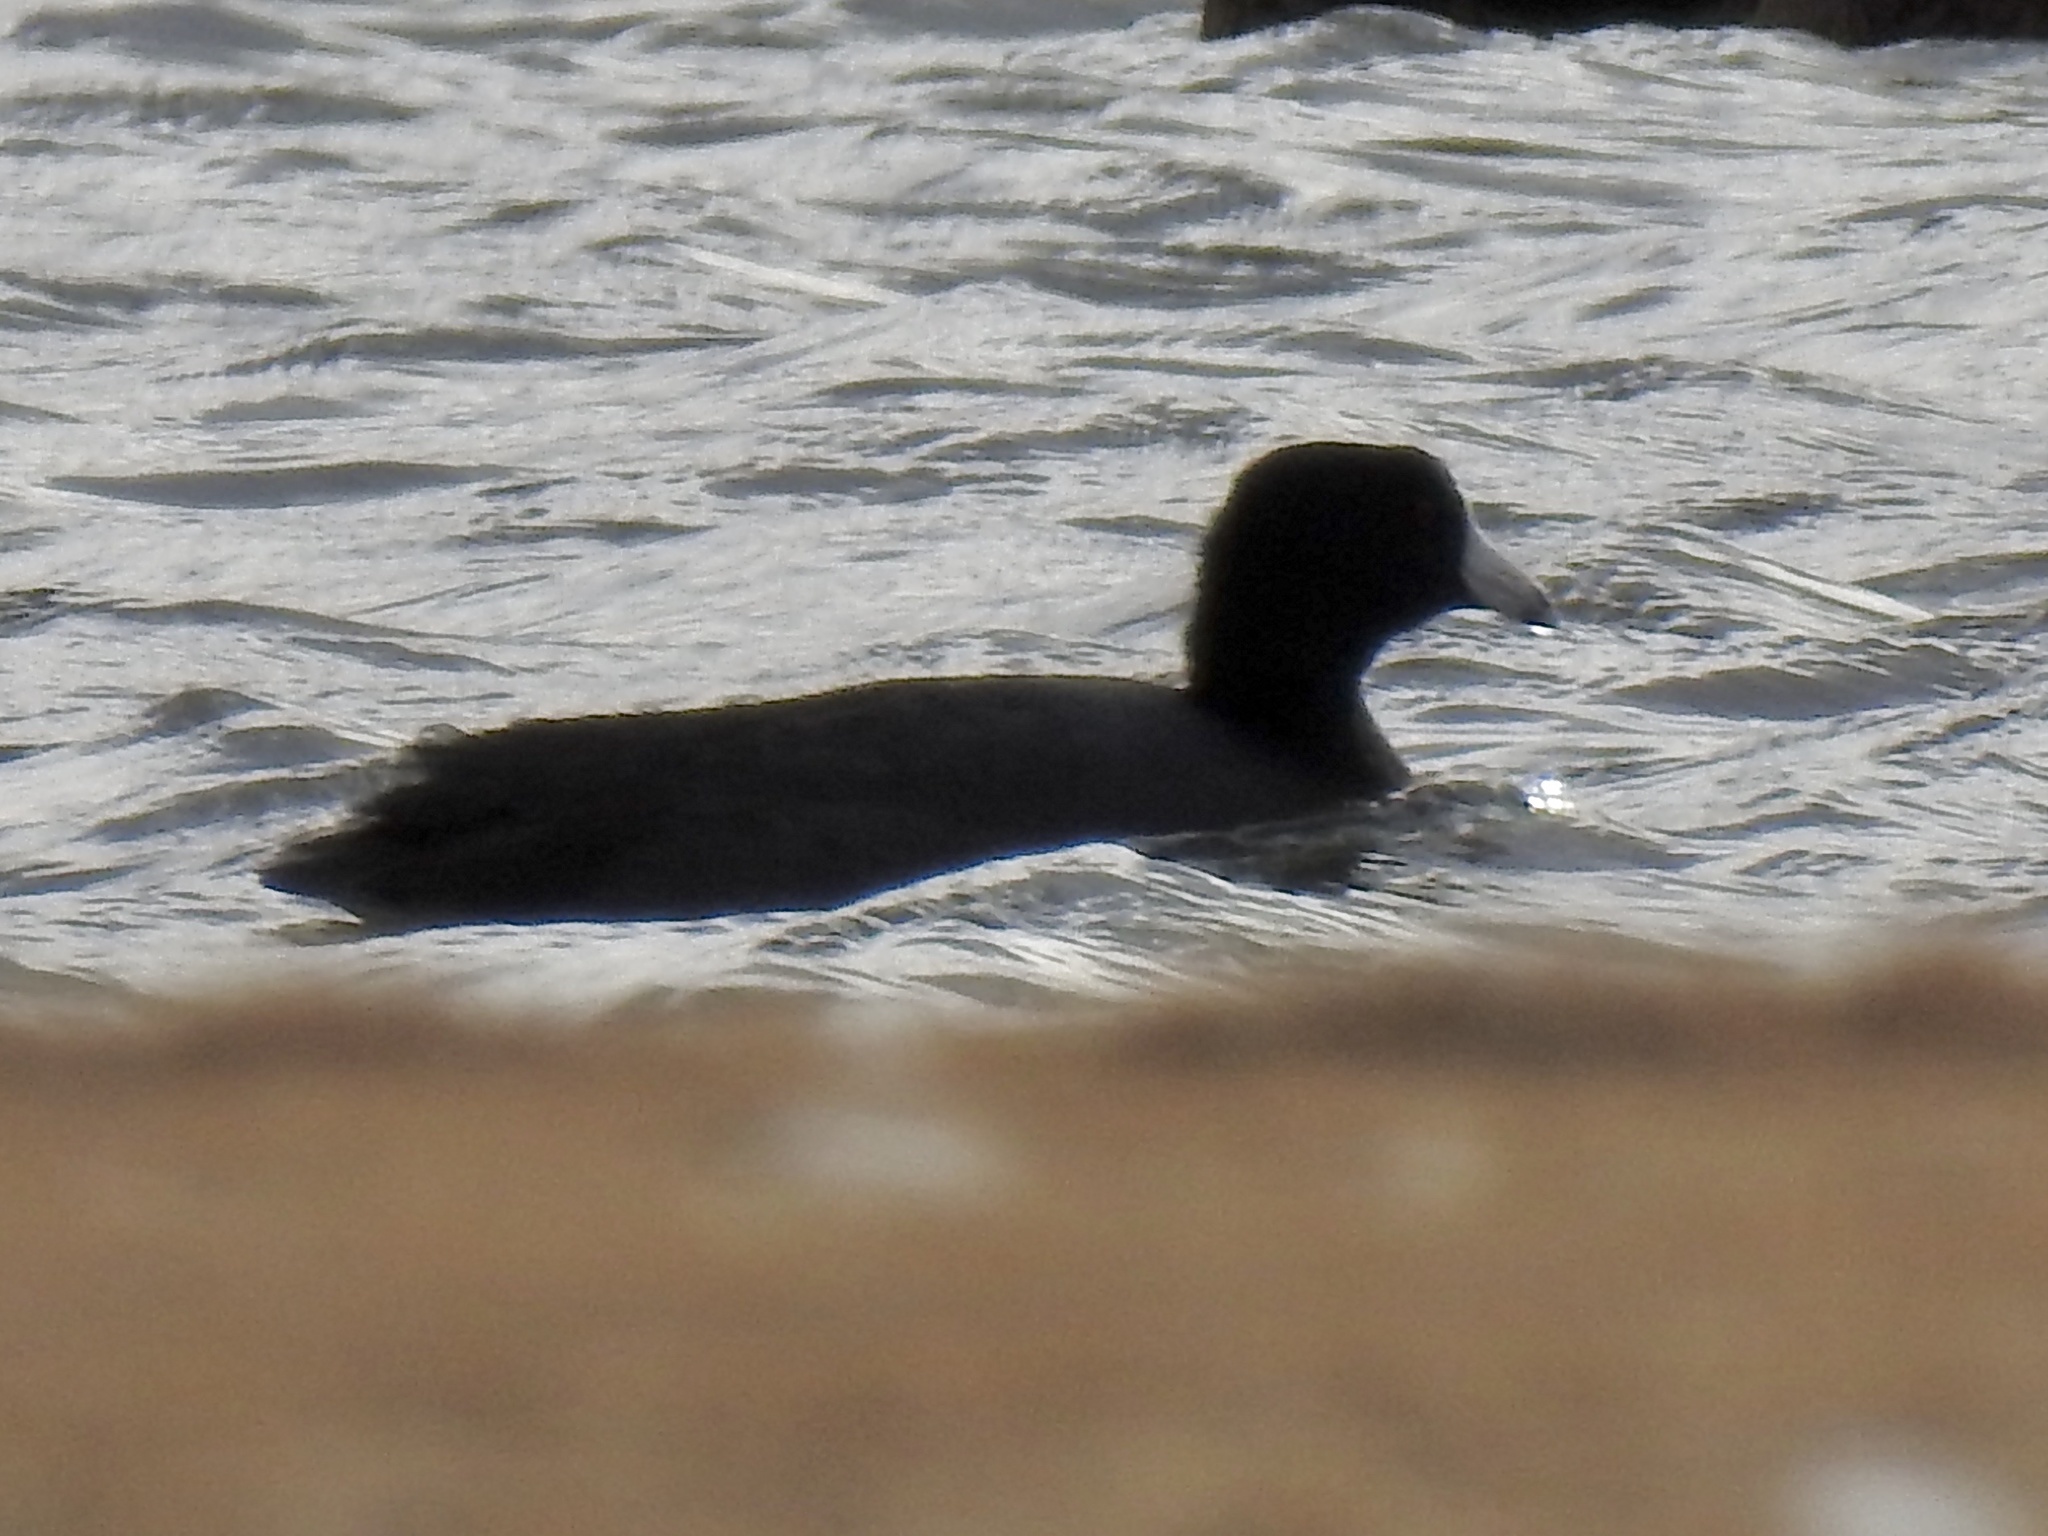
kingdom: Animalia
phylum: Chordata
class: Aves
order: Gruiformes
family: Rallidae
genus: Fulica
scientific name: Fulica americana
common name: American coot
